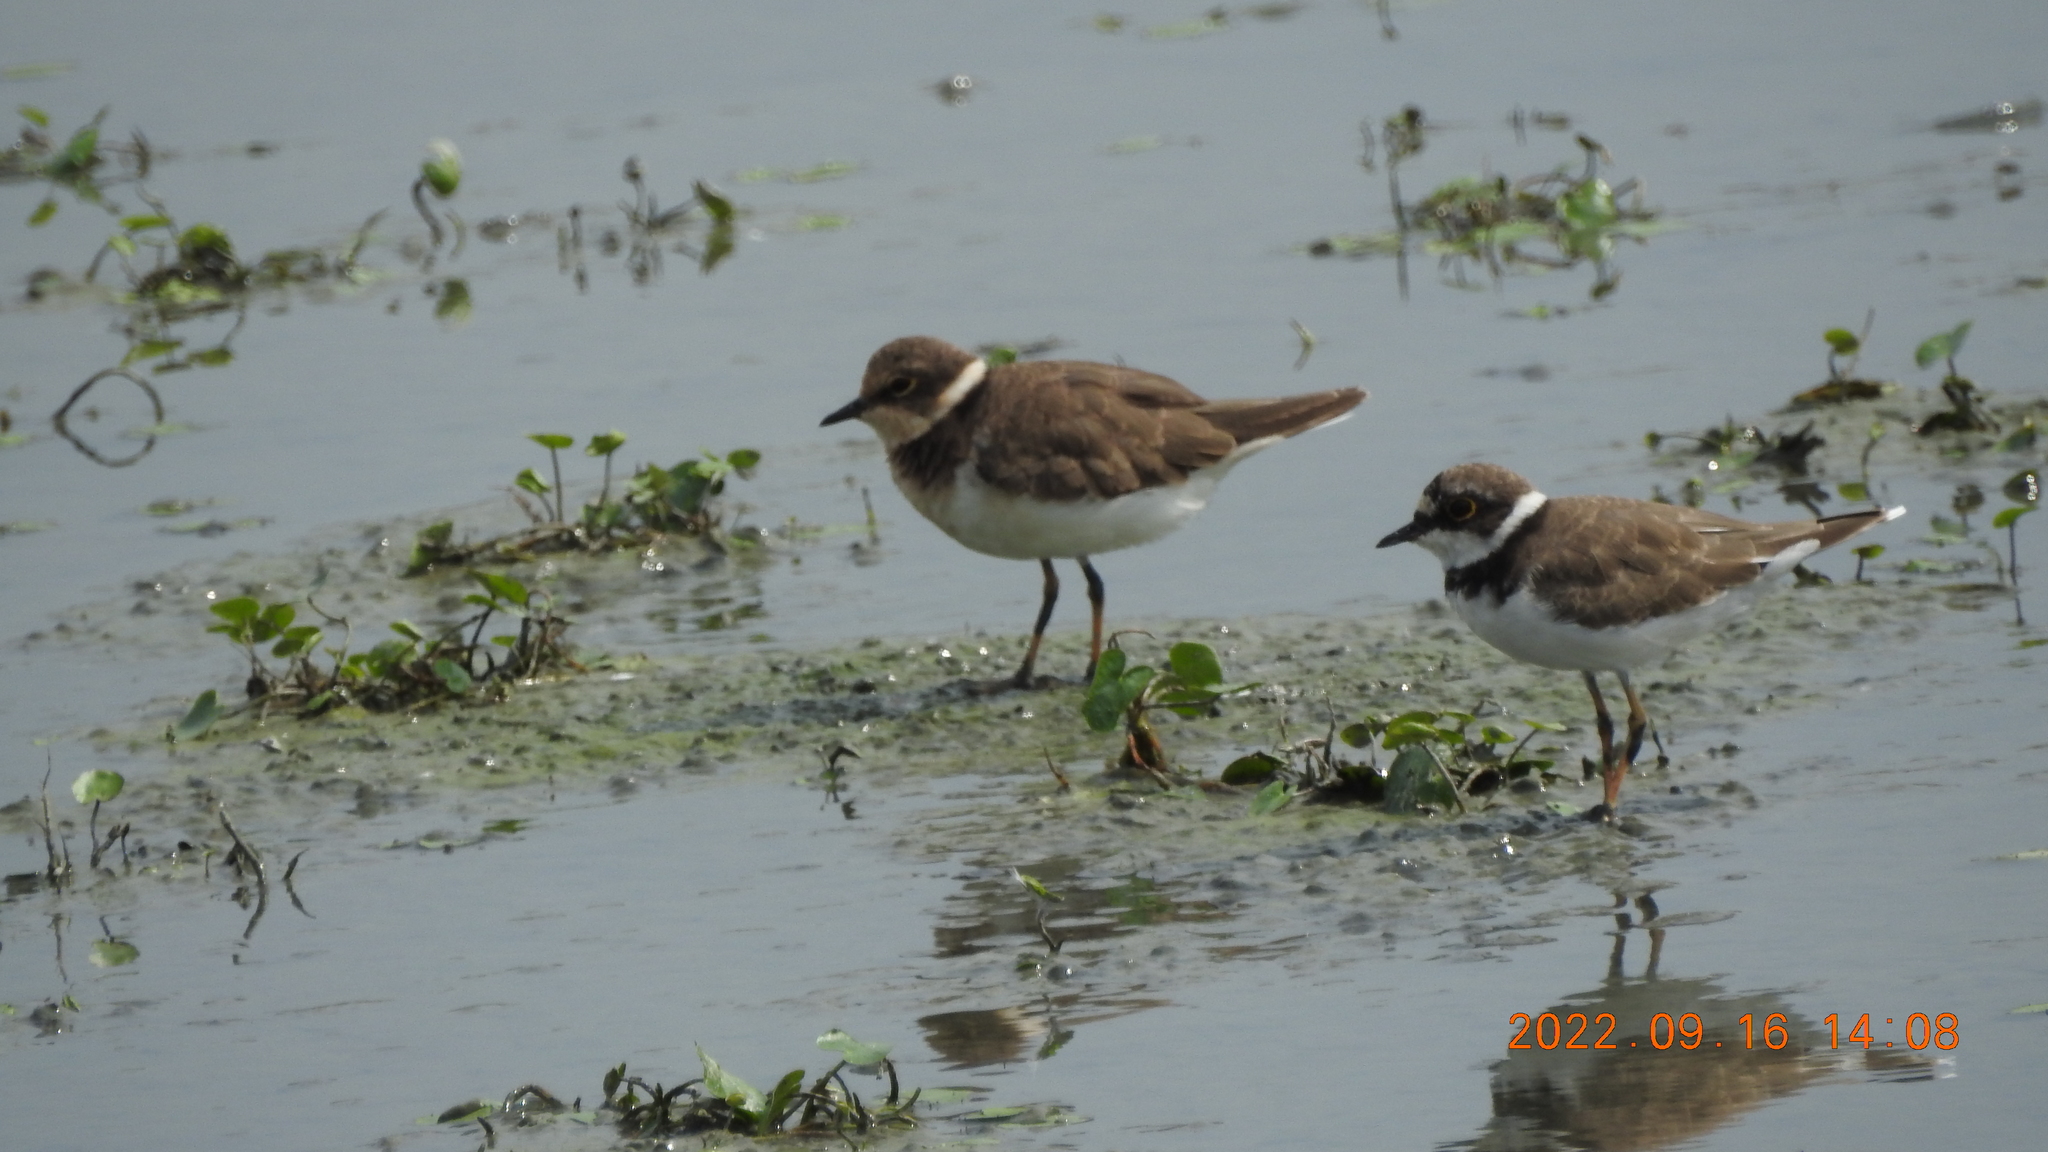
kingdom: Animalia
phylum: Chordata
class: Aves
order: Charadriiformes
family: Charadriidae
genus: Charadrius
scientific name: Charadrius dubius
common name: Little ringed plover
